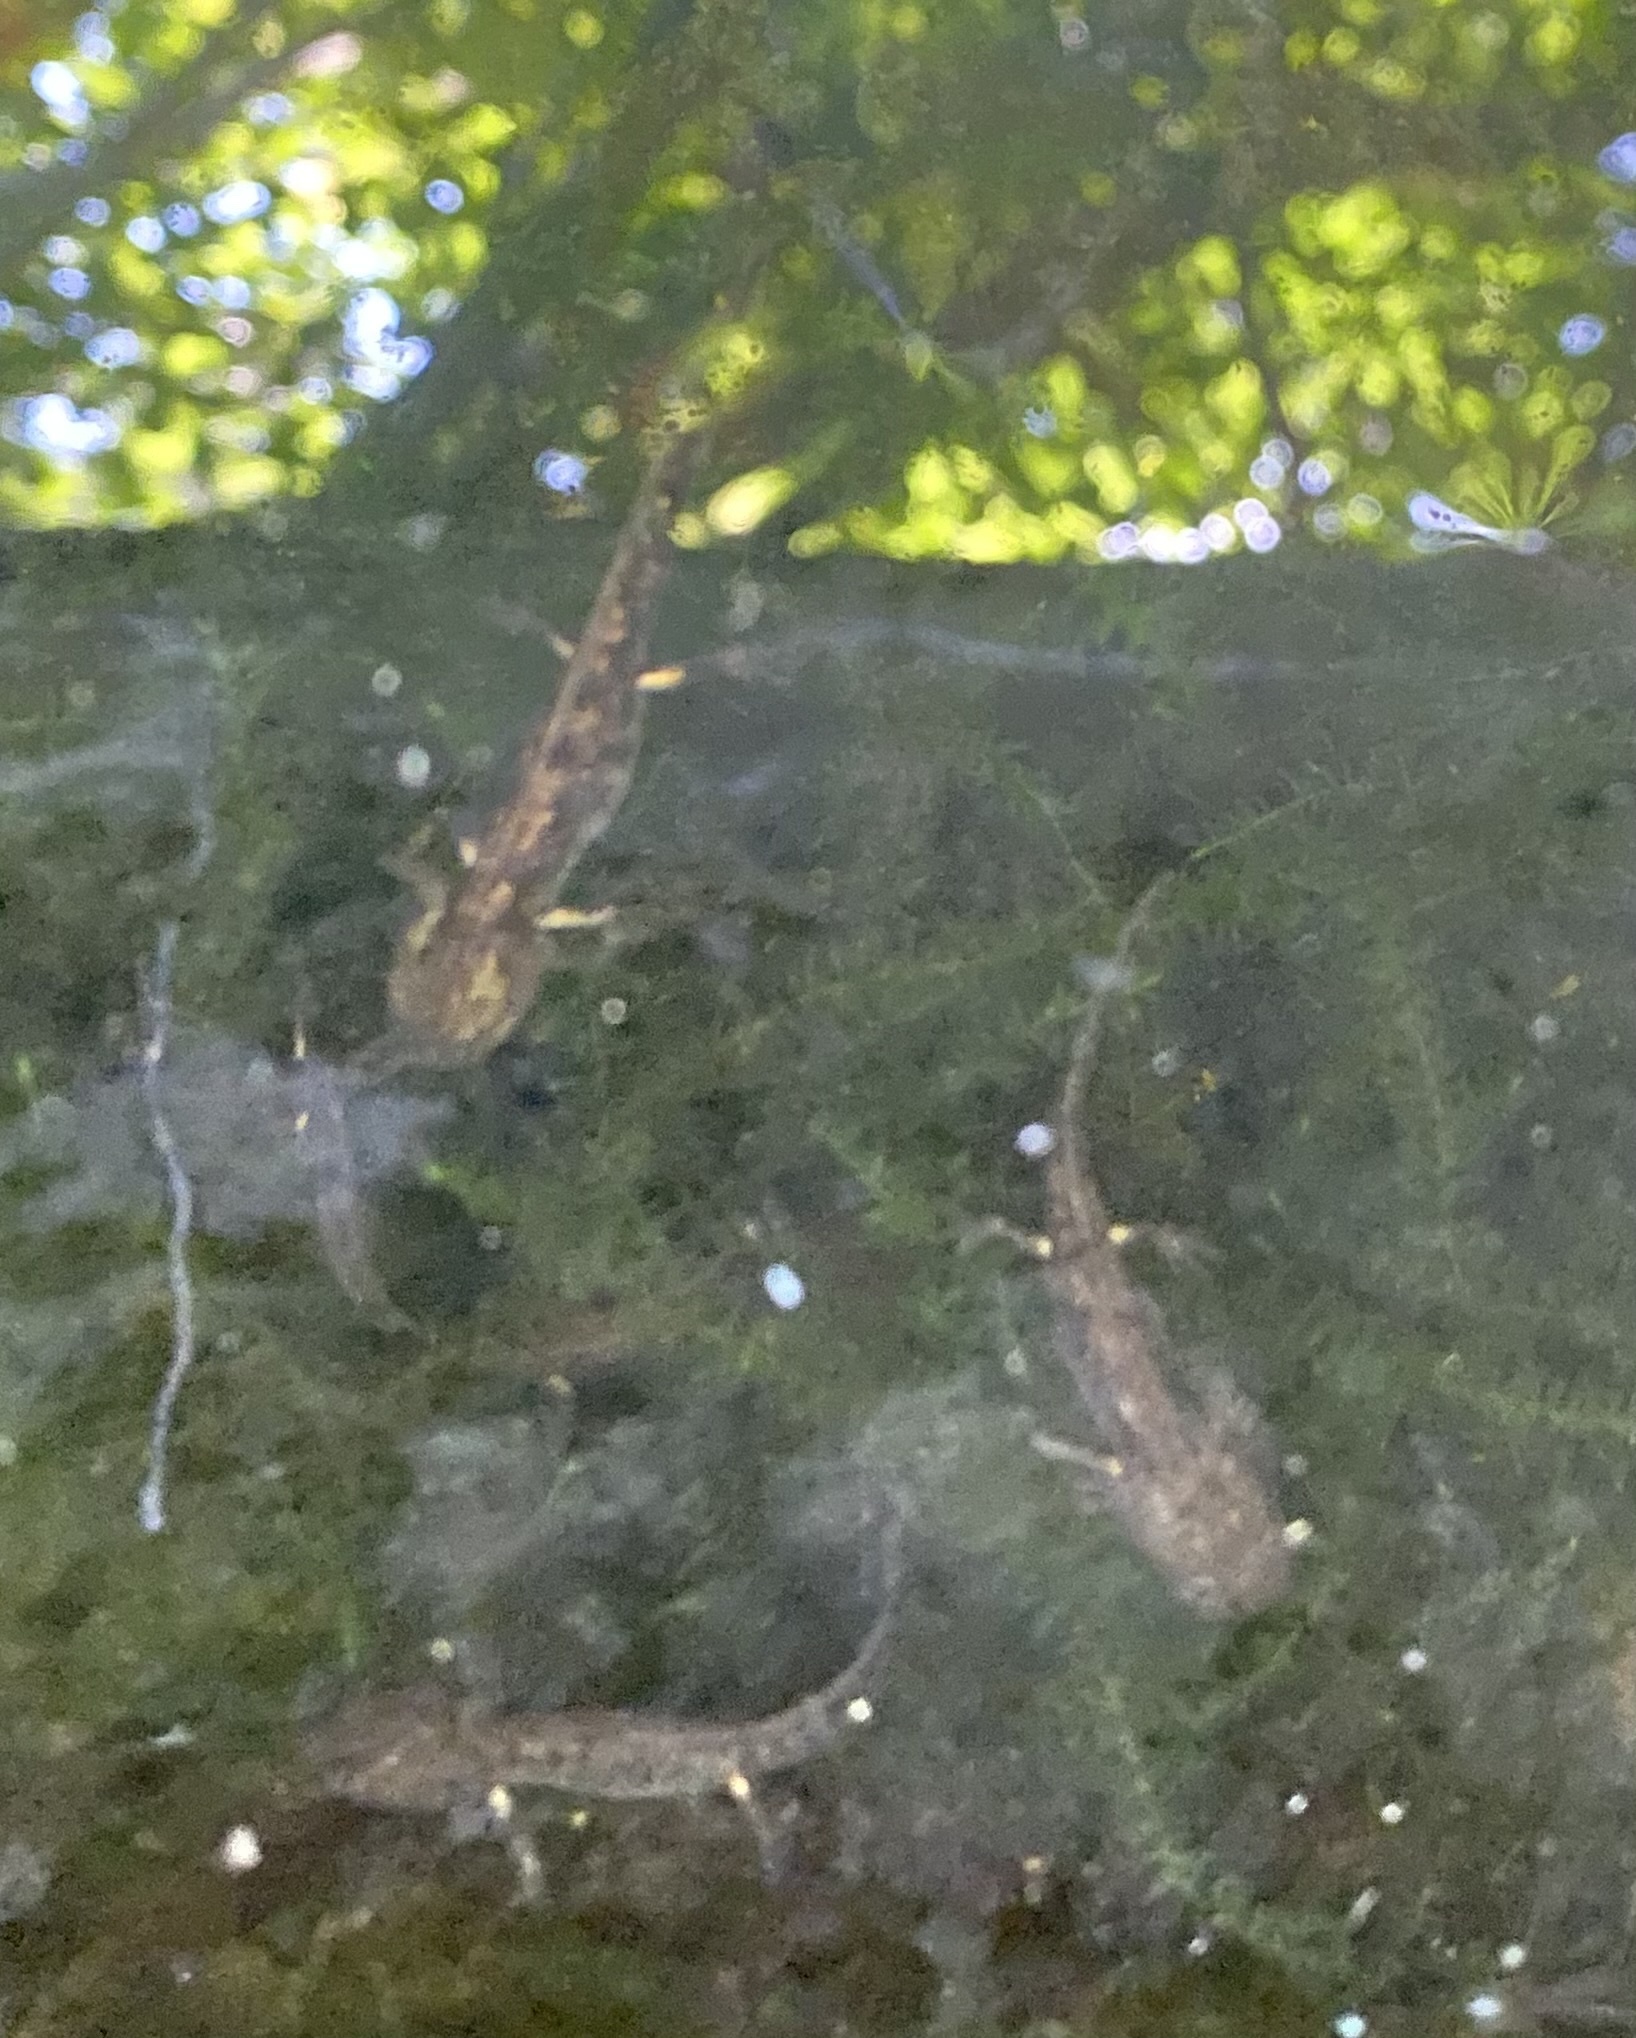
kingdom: Animalia
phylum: Chordata
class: Amphibia
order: Caudata
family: Salamandridae
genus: Salamandra
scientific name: Salamandra salamandra
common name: Fire salamander
